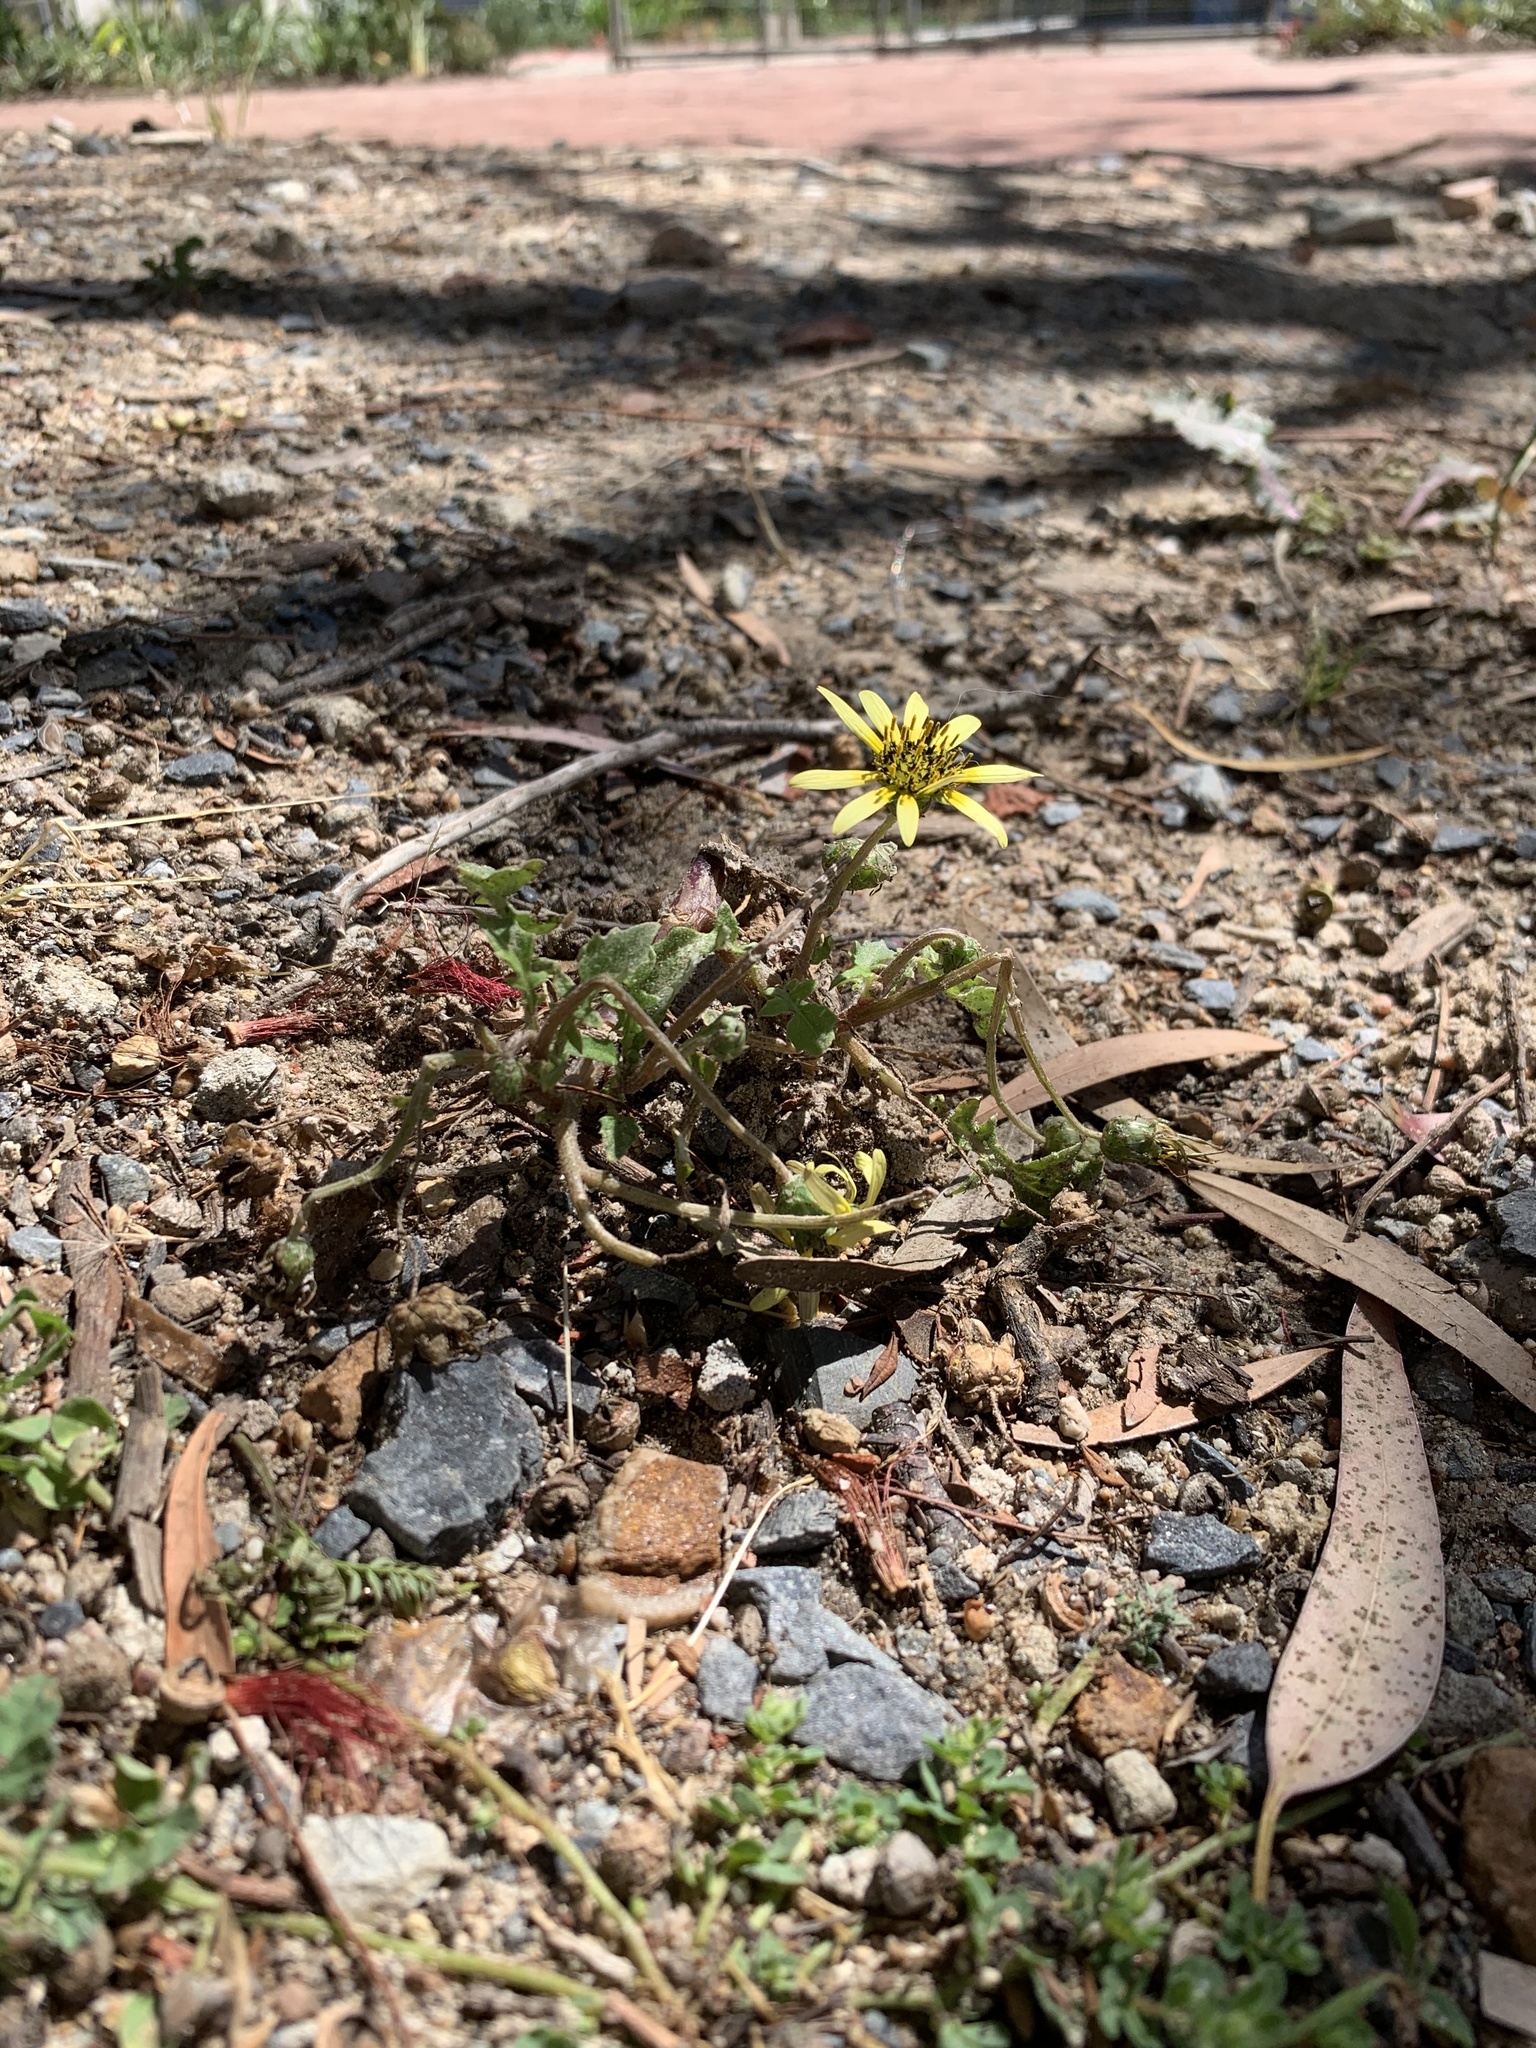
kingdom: Plantae
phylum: Tracheophyta
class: Magnoliopsida
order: Asterales
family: Asteraceae
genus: Arctotheca
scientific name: Arctotheca calendula
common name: Capeweed
